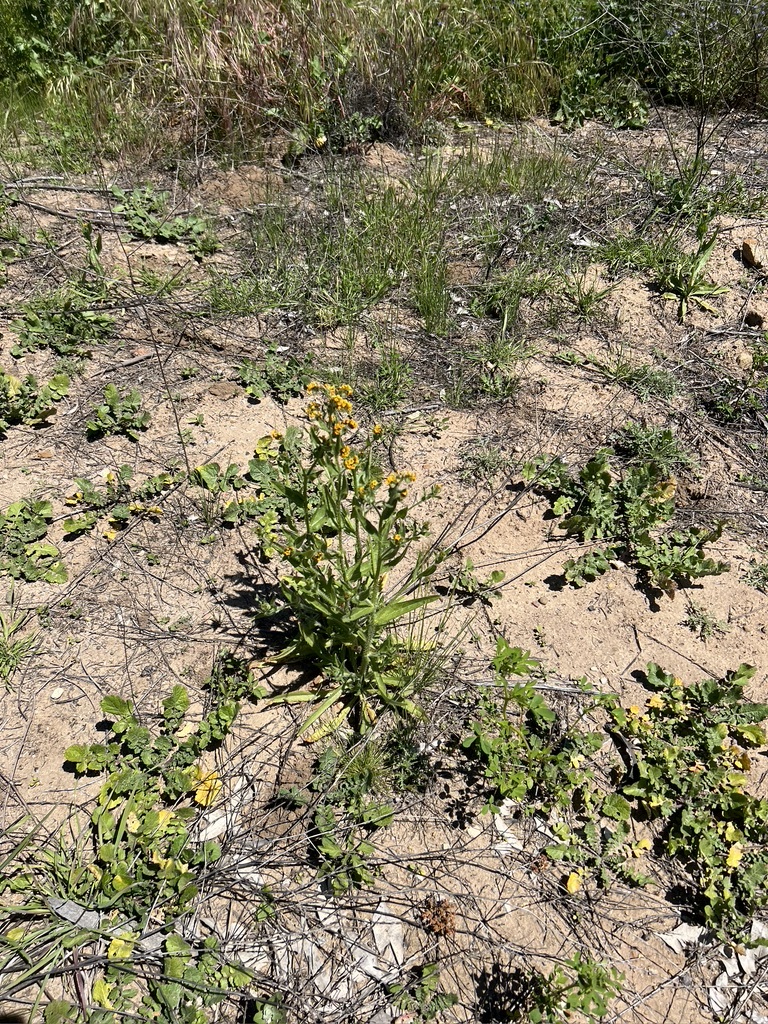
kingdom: Plantae
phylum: Tracheophyta
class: Magnoliopsida
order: Boraginales
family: Boraginaceae
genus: Amsinckia
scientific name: Amsinckia menziesii
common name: Menzies' fiddleneck
